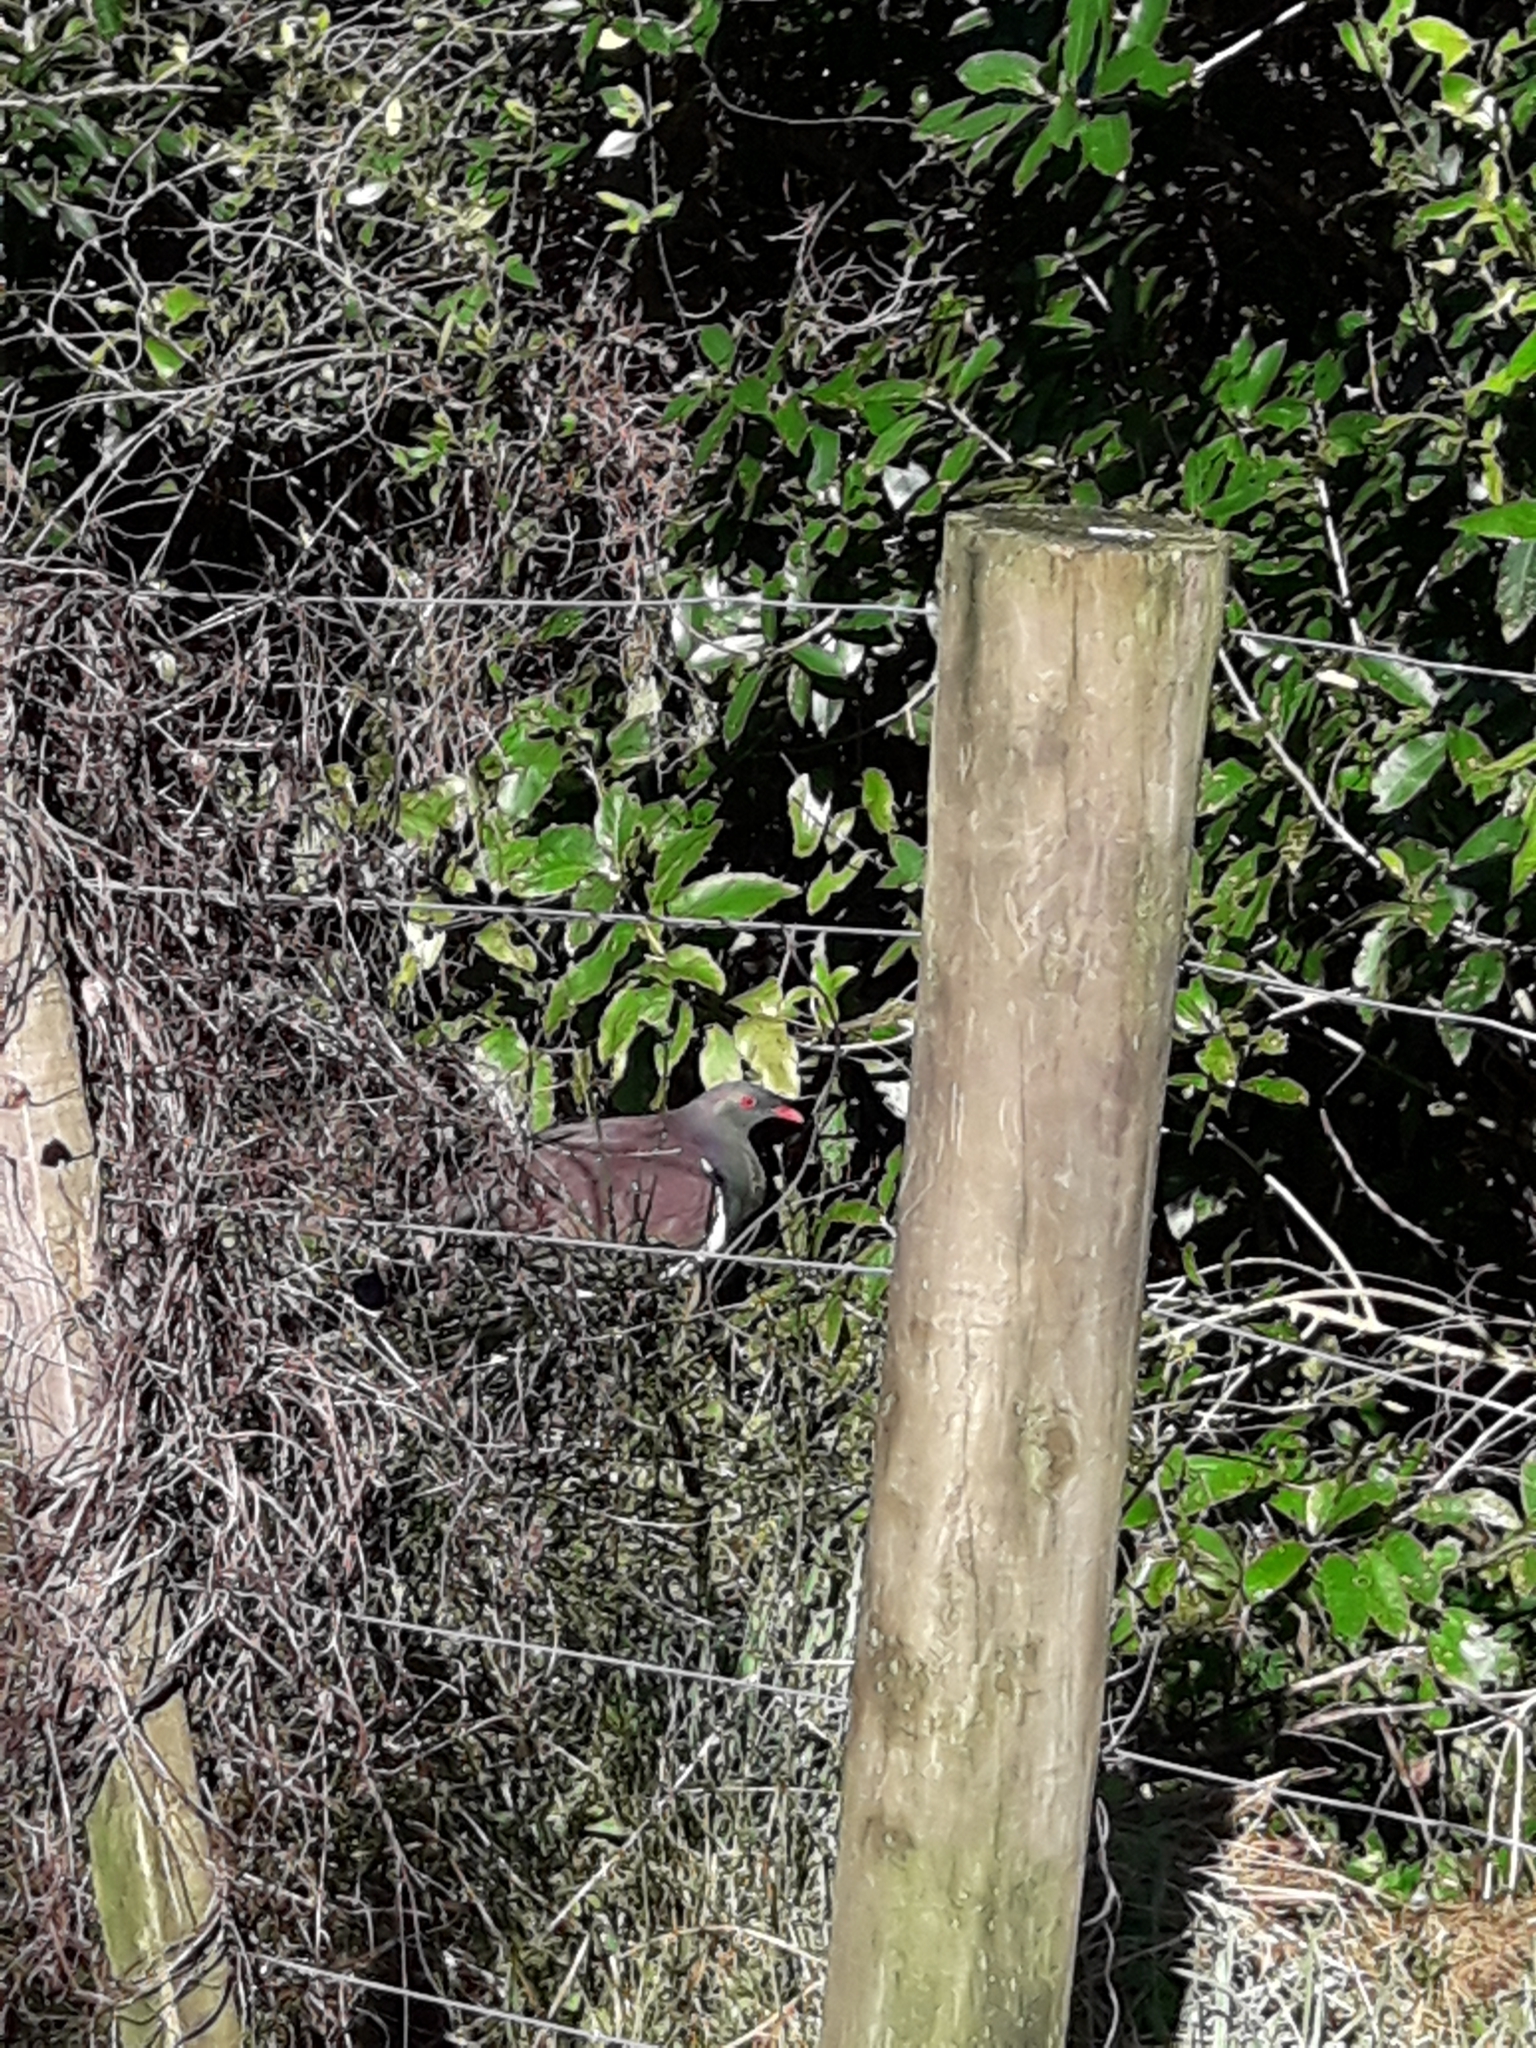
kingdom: Animalia
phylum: Chordata
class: Aves
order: Columbiformes
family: Columbidae
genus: Hemiphaga
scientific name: Hemiphaga novaeseelandiae
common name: New zealand pigeon
